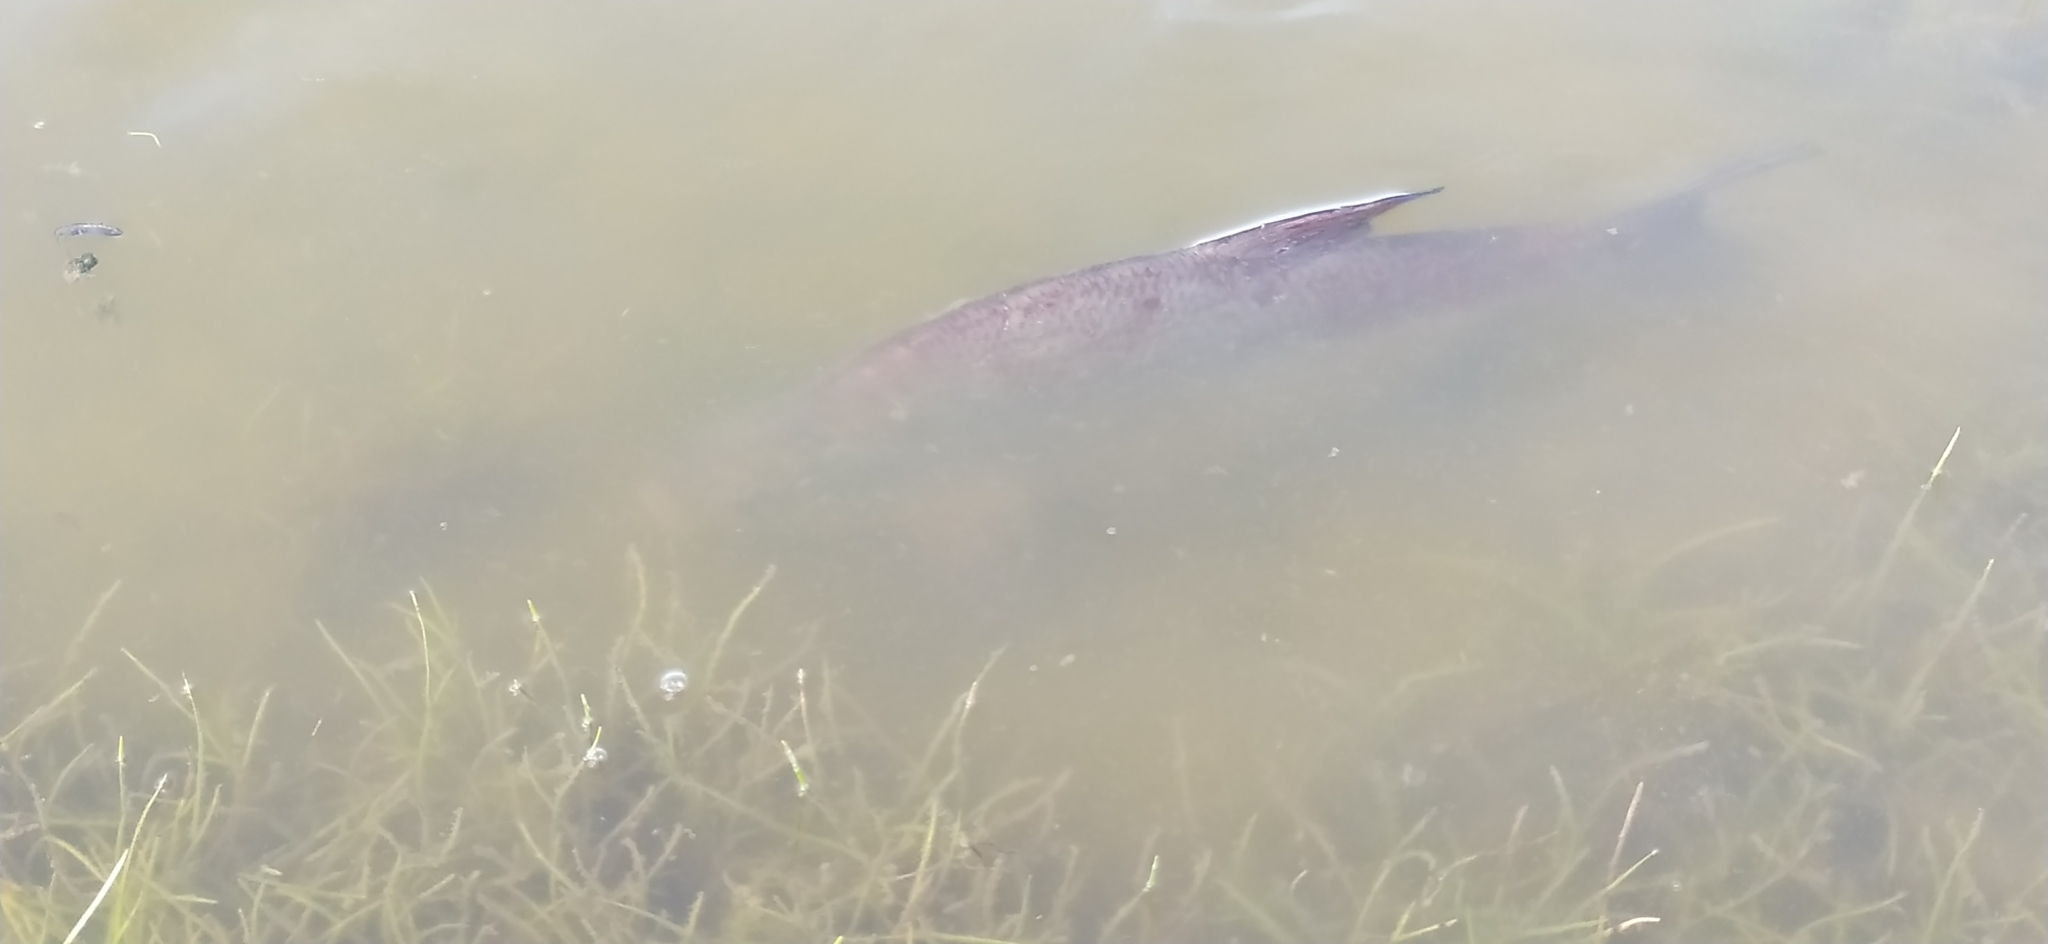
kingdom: Animalia
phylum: Chordata
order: Cypriniformes
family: Cyprinidae
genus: Abramis
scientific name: Abramis brama
